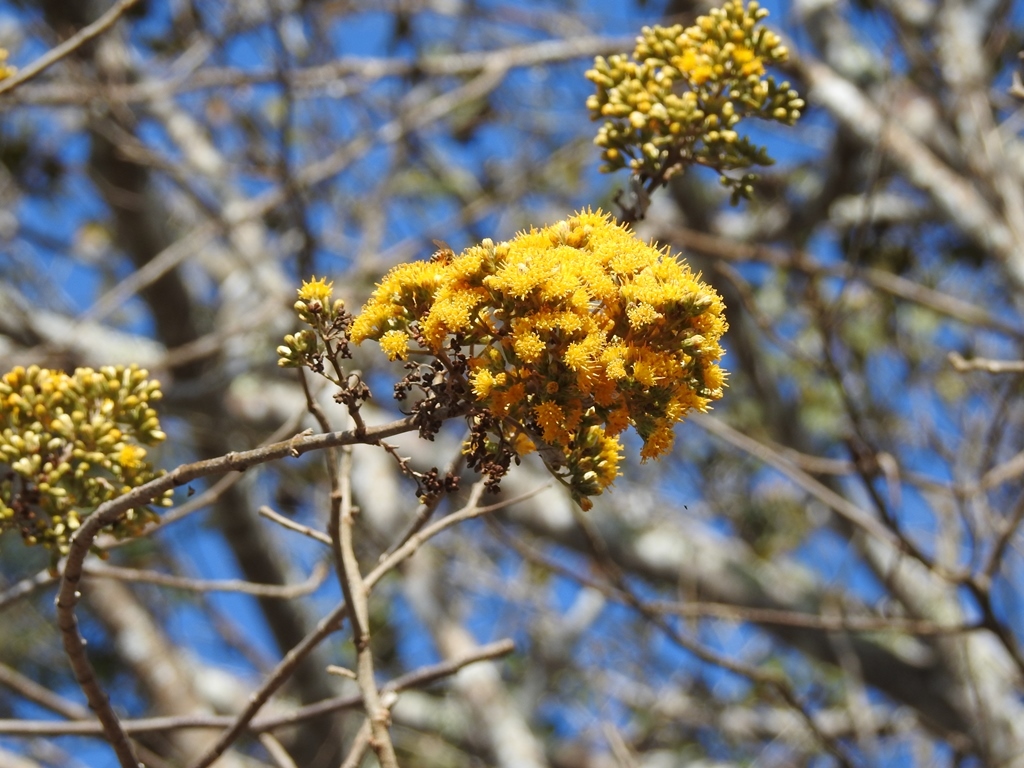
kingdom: Plantae
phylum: Tracheophyta
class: Magnoliopsida
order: Asterales
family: Asteraceae
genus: Sinclairia
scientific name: Sinclairia vagans
